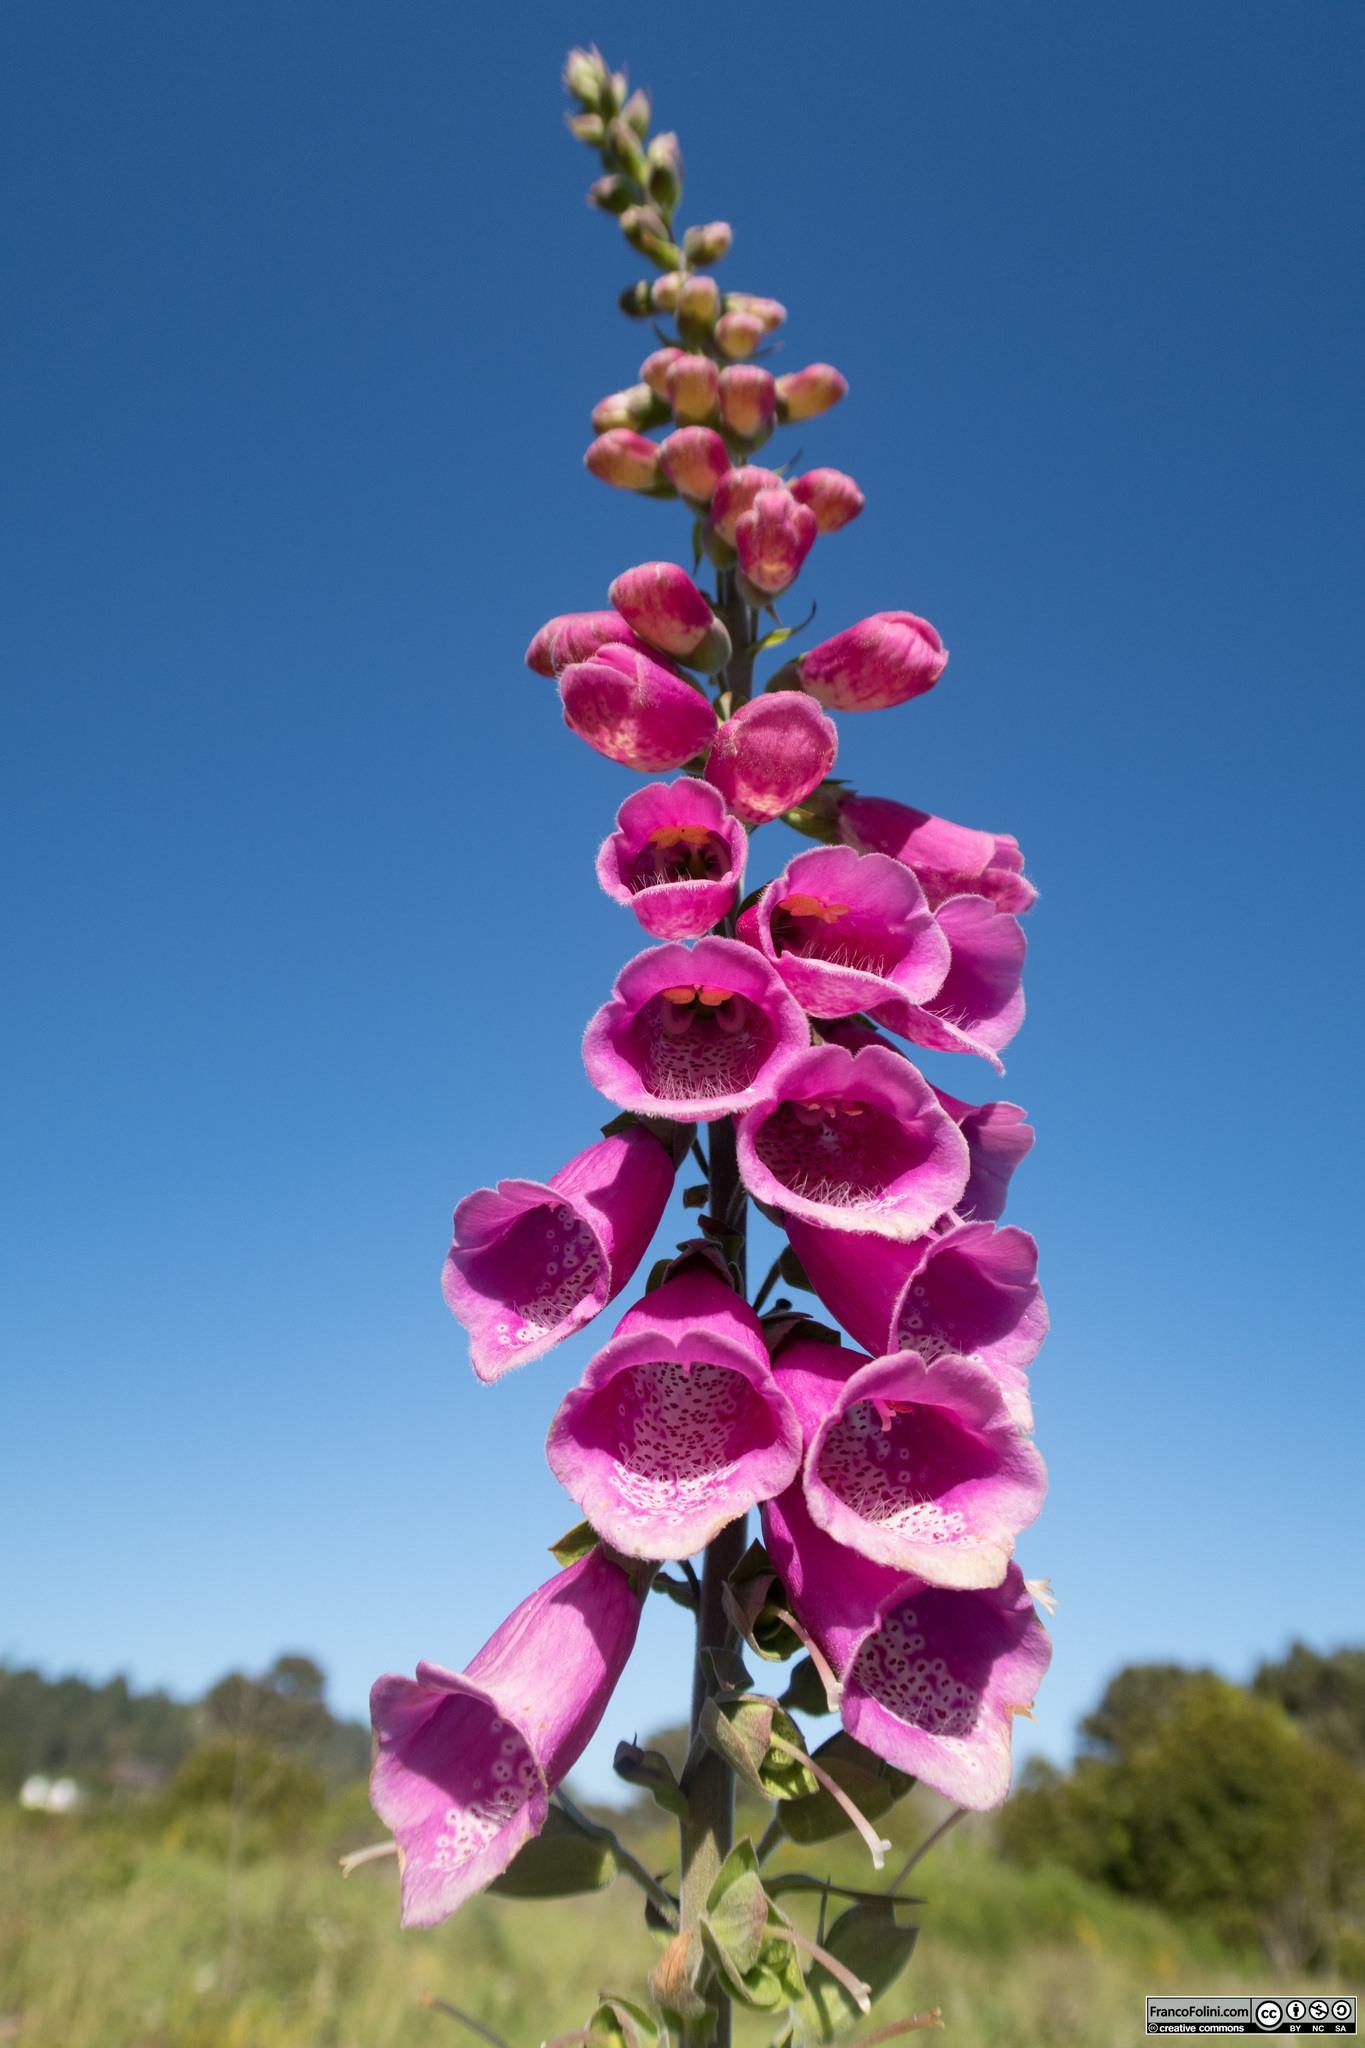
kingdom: Plantae
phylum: Tracheophyta
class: Magnoliopsida
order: Lamiales
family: Plantaginaceae
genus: Digitalis
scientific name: Digitalis purpurea
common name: Foxglove
